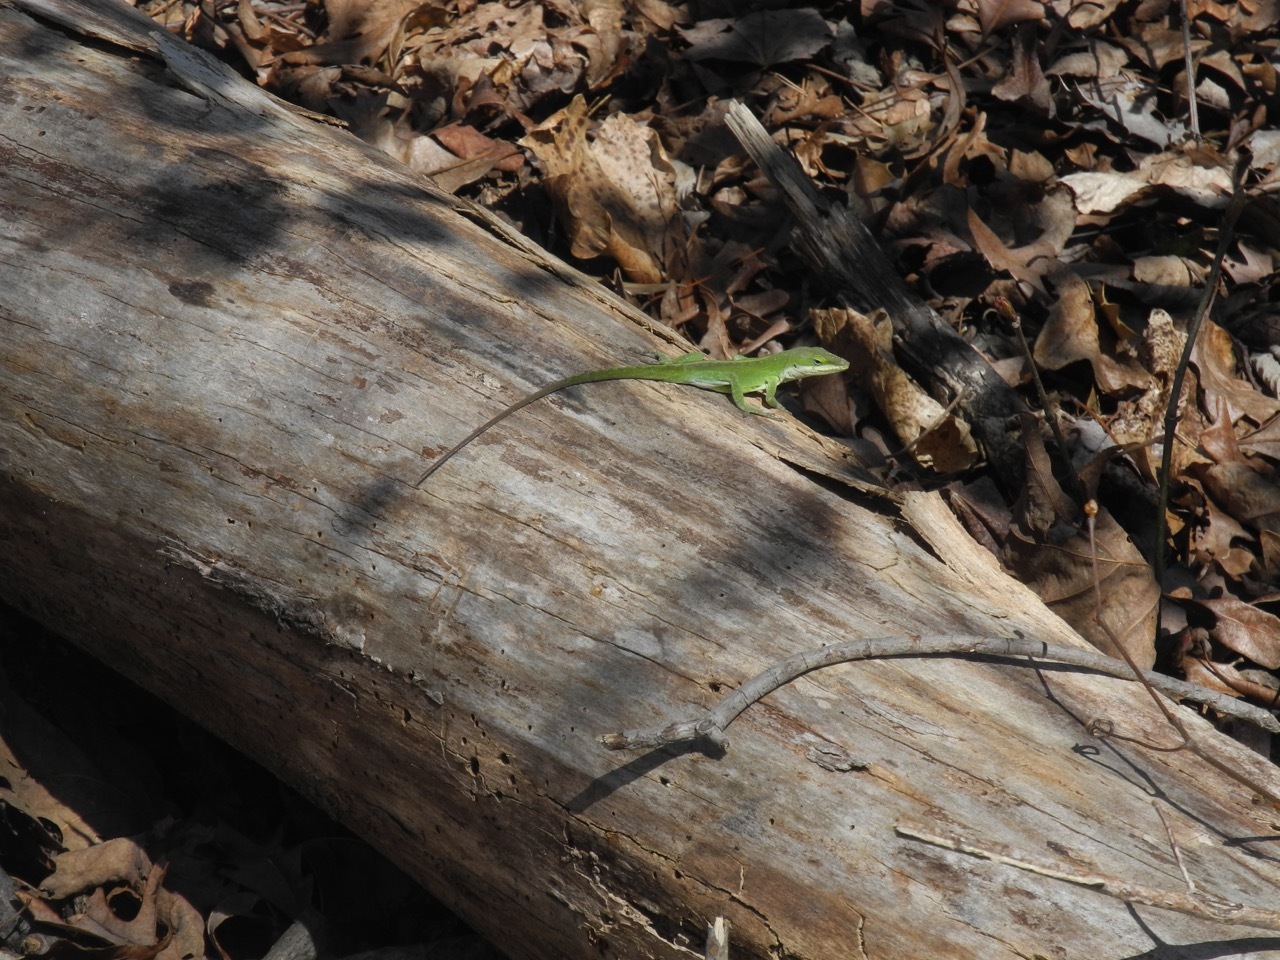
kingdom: Animalia
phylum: Chordata
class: Squamata
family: Dactyloidae
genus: Anolis
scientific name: Anolis carolinensis
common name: Green anole
